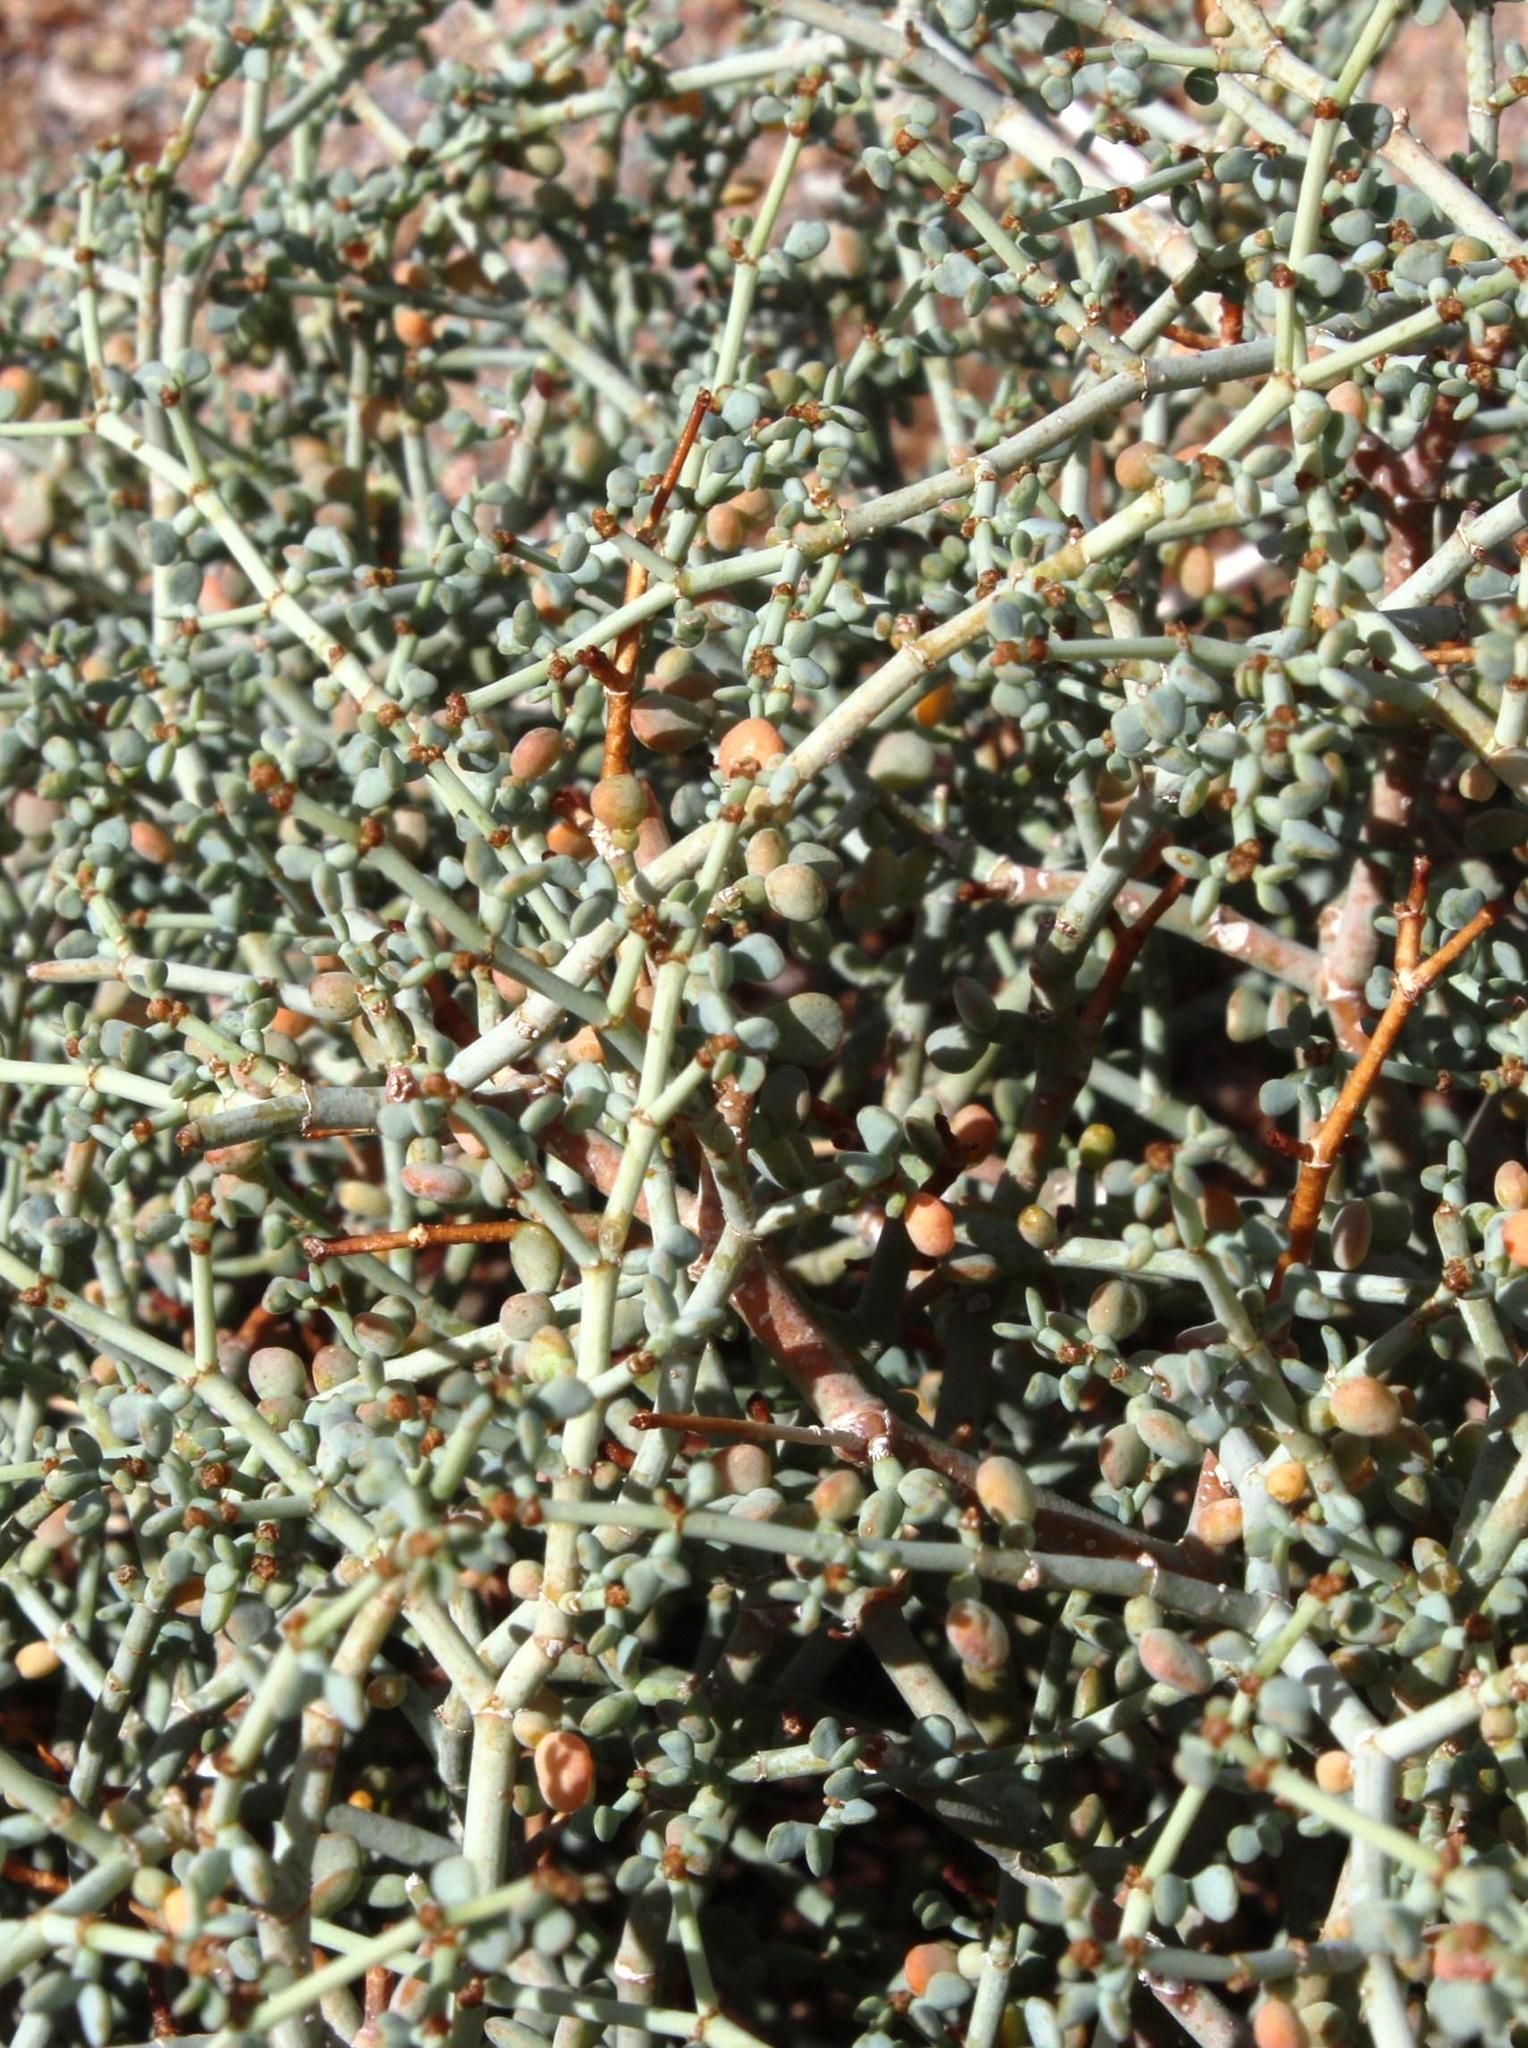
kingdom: Plantae
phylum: Tracheophyta
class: Magnoliopsida
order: Zygophyllales
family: Zygophyllaceae
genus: Tetraena
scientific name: Tetraena retrofracta
